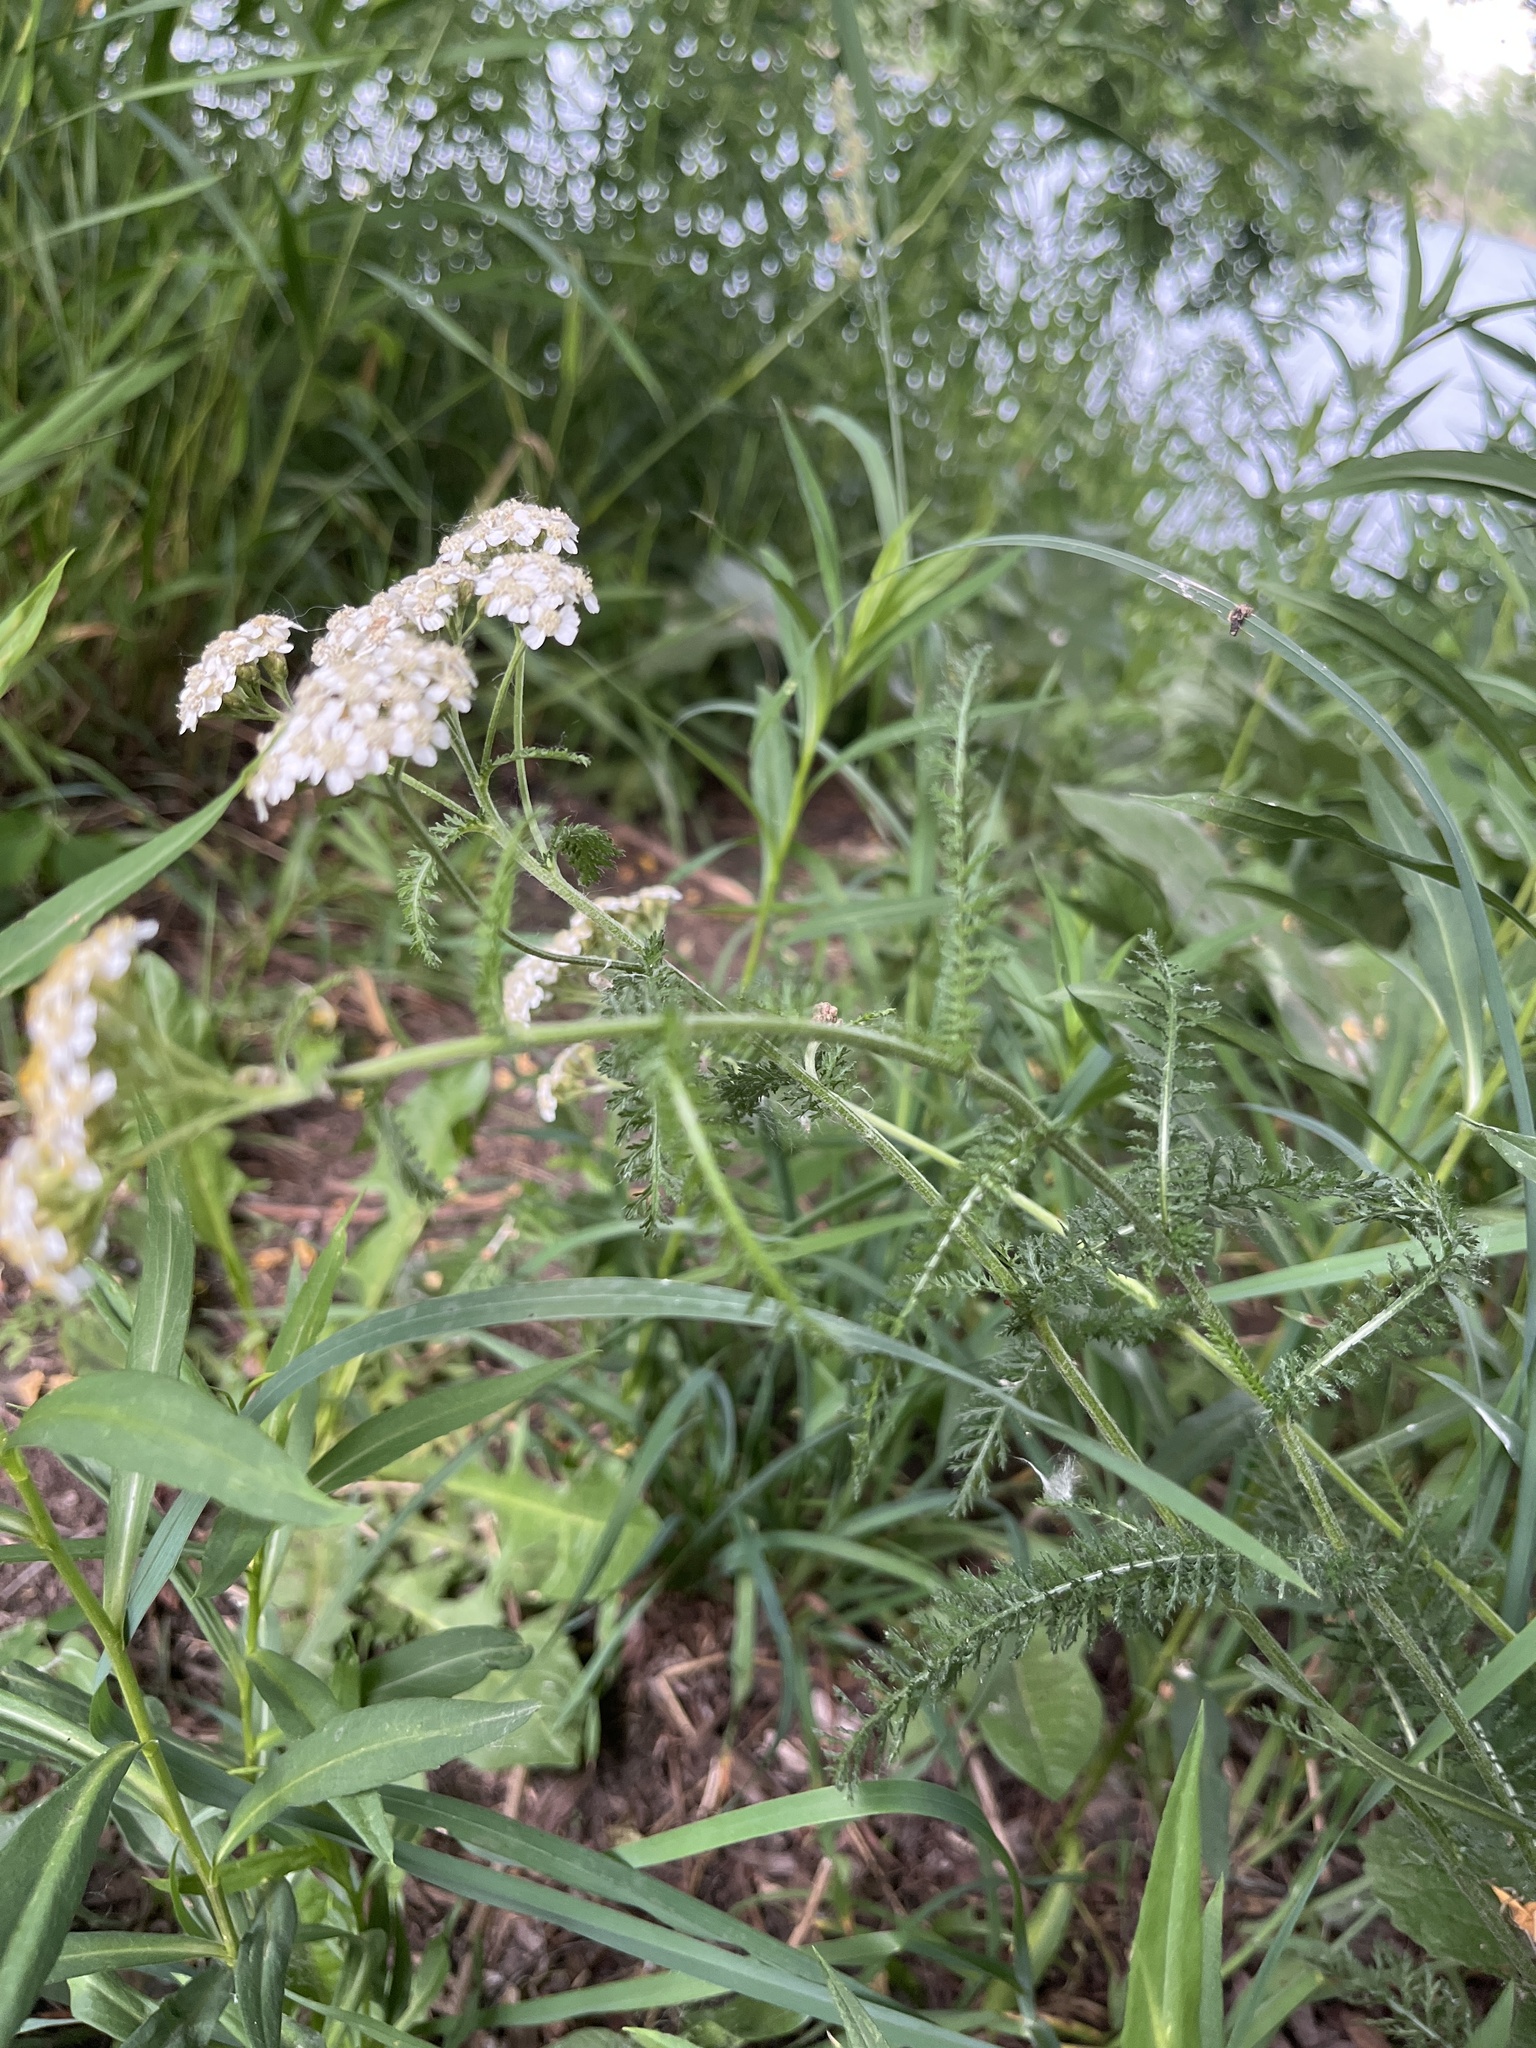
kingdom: Plantae
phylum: Tracheophyta
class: Magnoliopsida
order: Asterales
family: Asteraceae
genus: Achillea
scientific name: Achillea millefolium
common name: Yarrow
